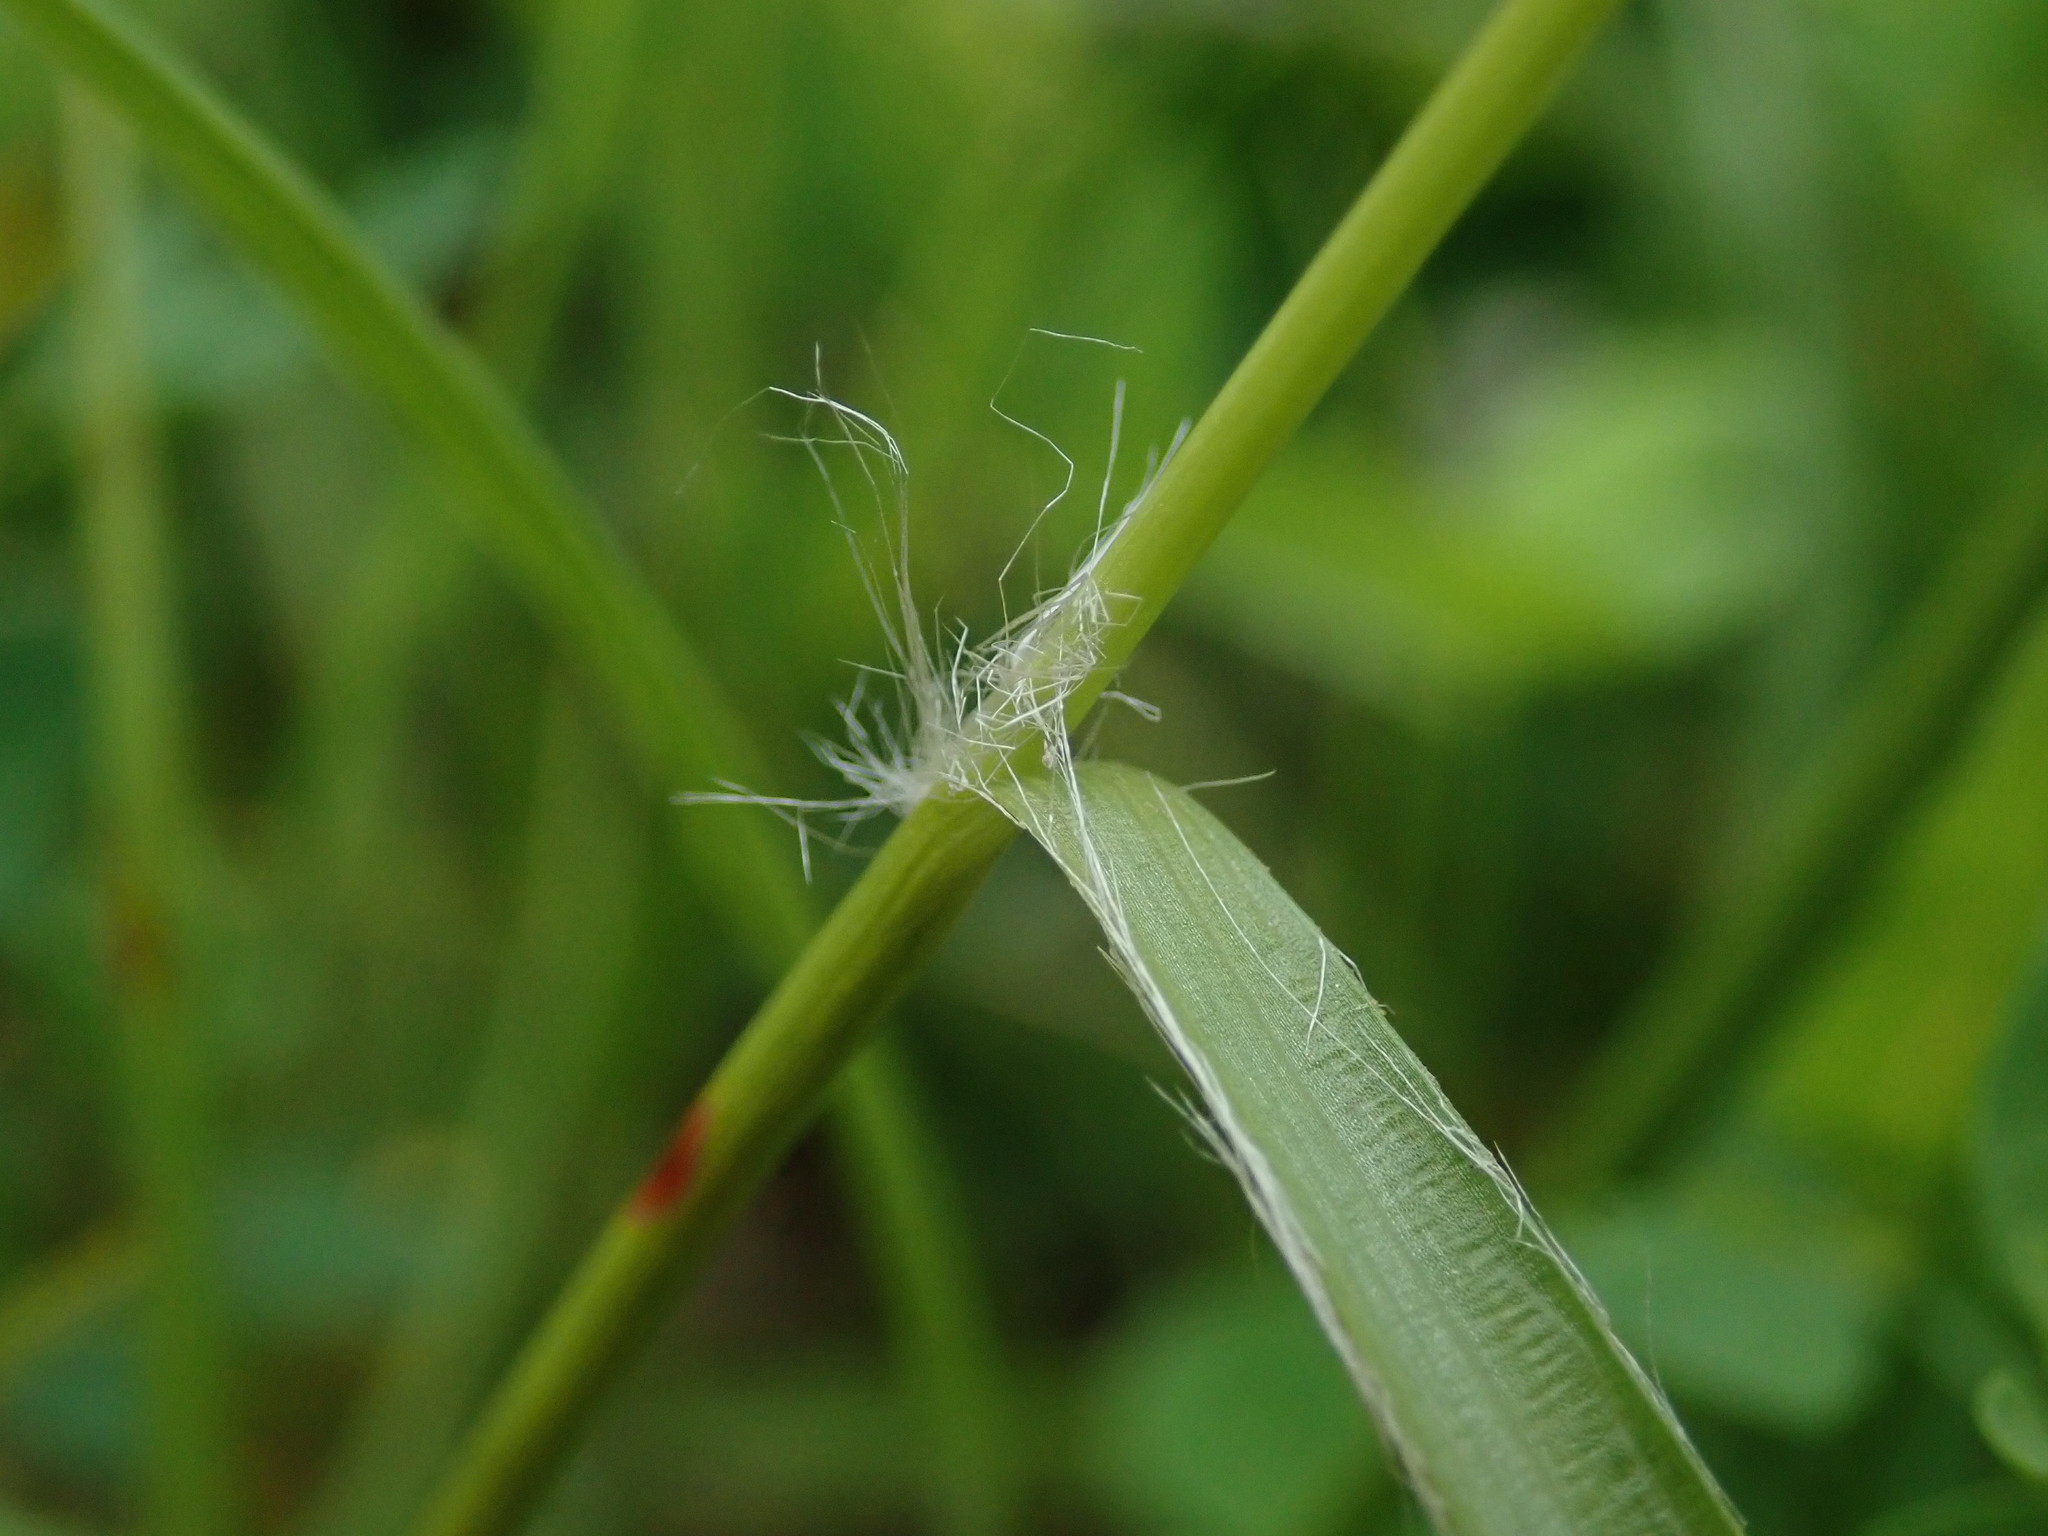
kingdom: Plantae
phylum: Tracheophyta
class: Liliopsida
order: Poales
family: Juncaceae
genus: Luzula
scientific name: Luzula campestris
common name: Field wood-rush
